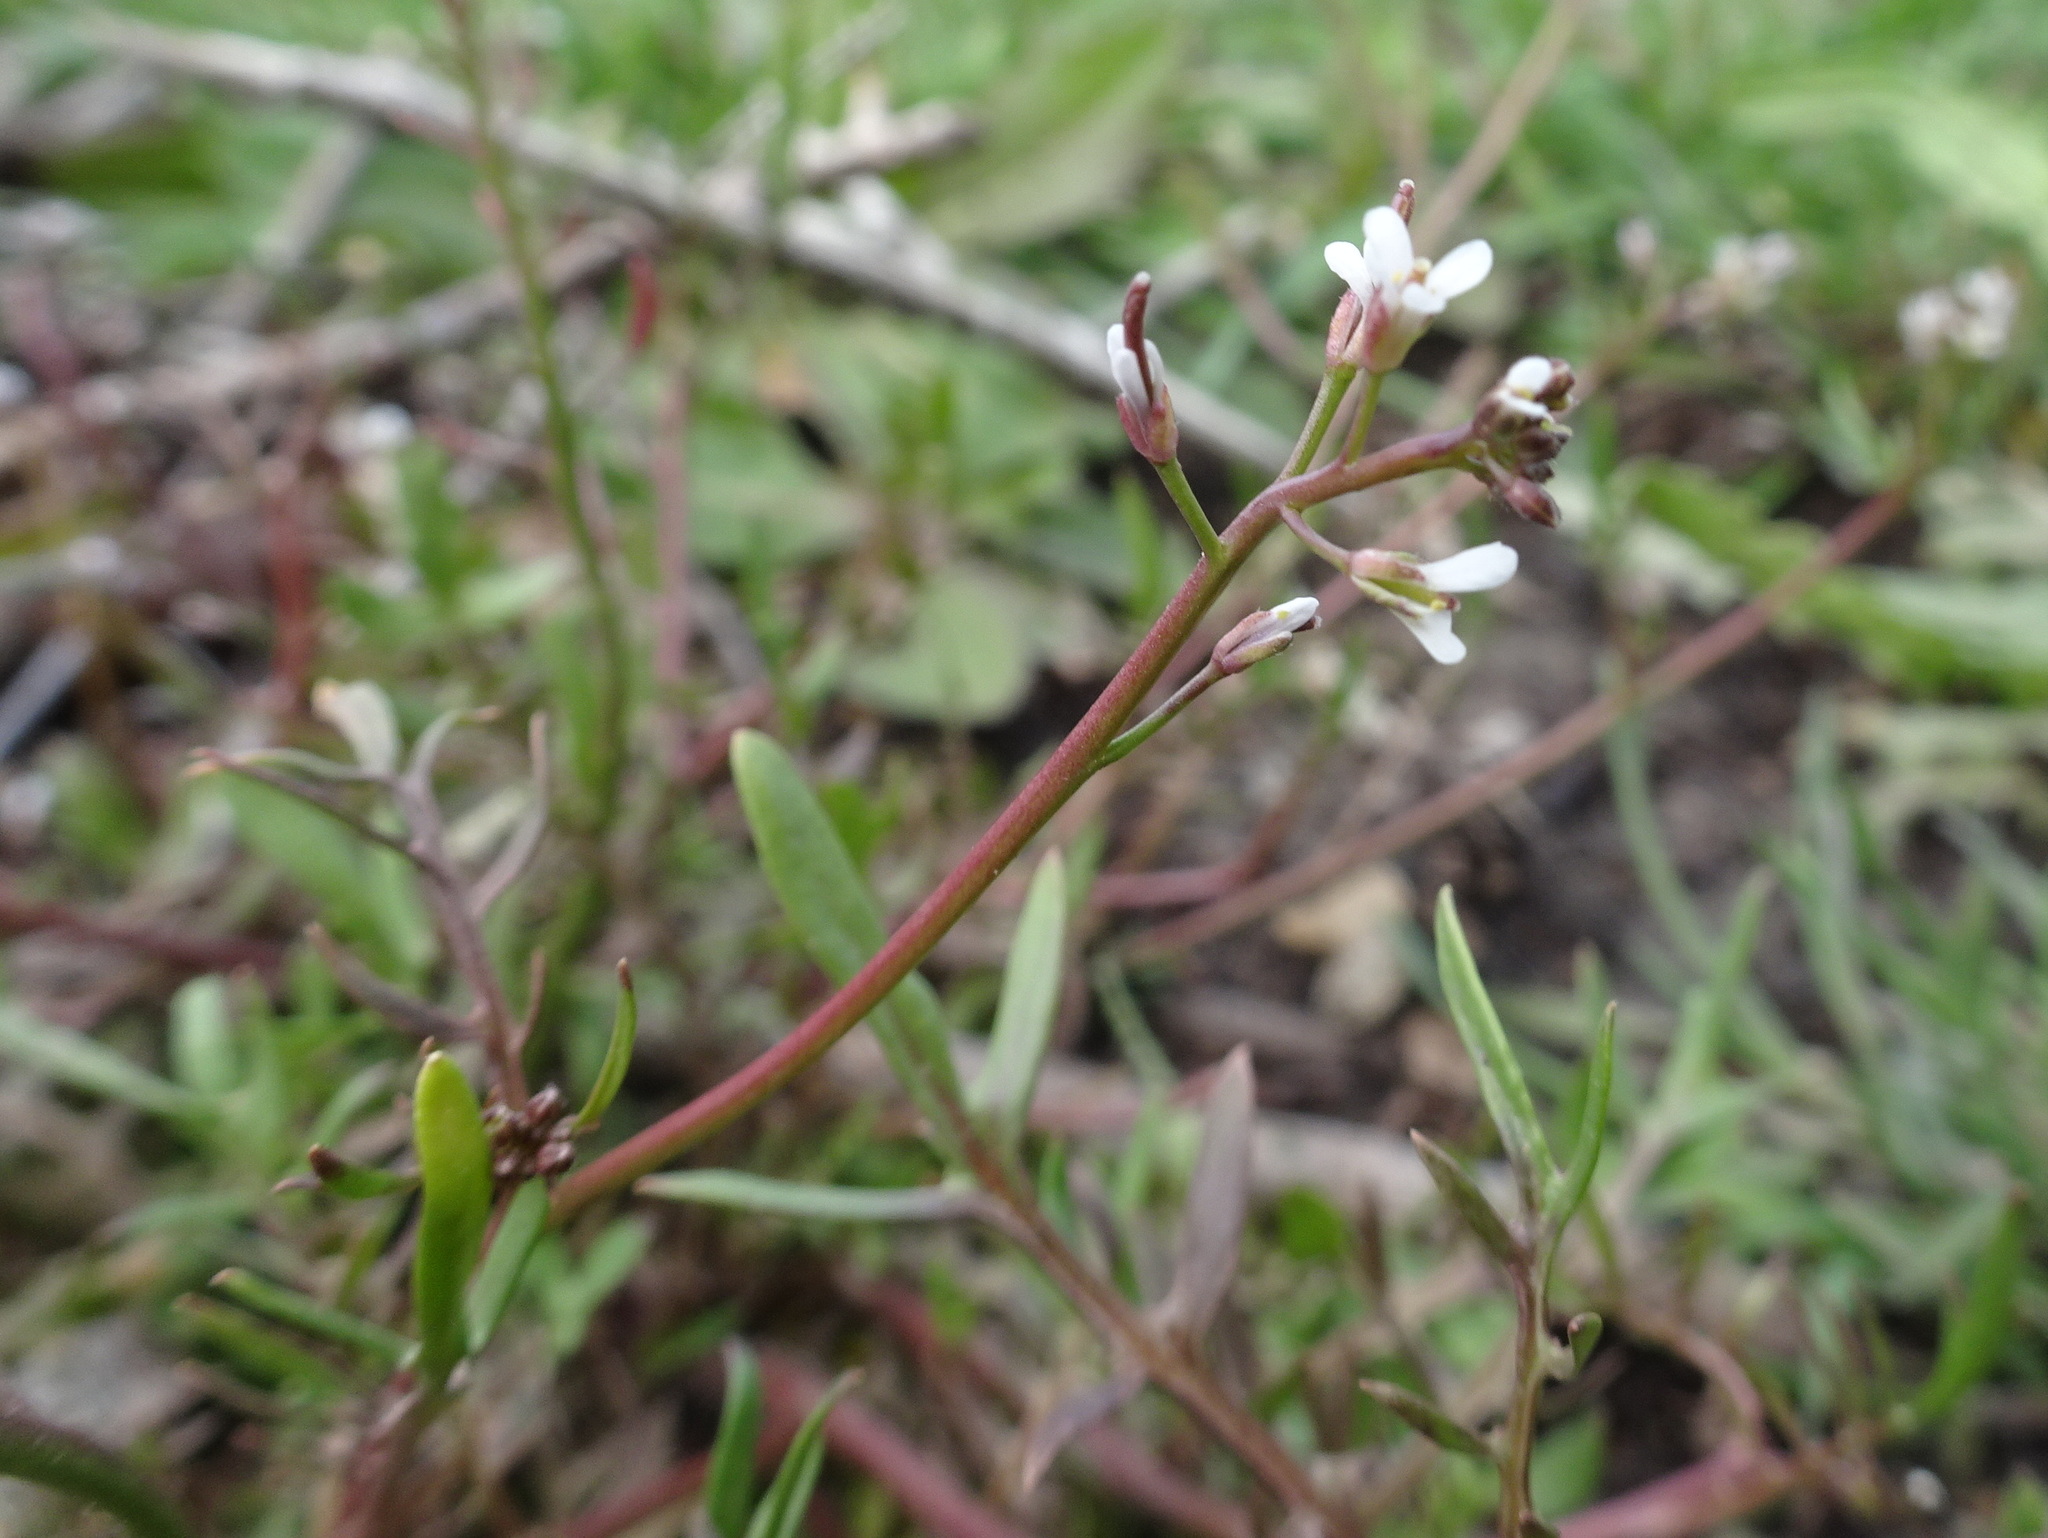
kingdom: Plantae
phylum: Tracheophyta
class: Magnoliopsida
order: Brassicales
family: Brassicaceae
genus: Planodes
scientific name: Planodes virginicum
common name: Virginia cress
